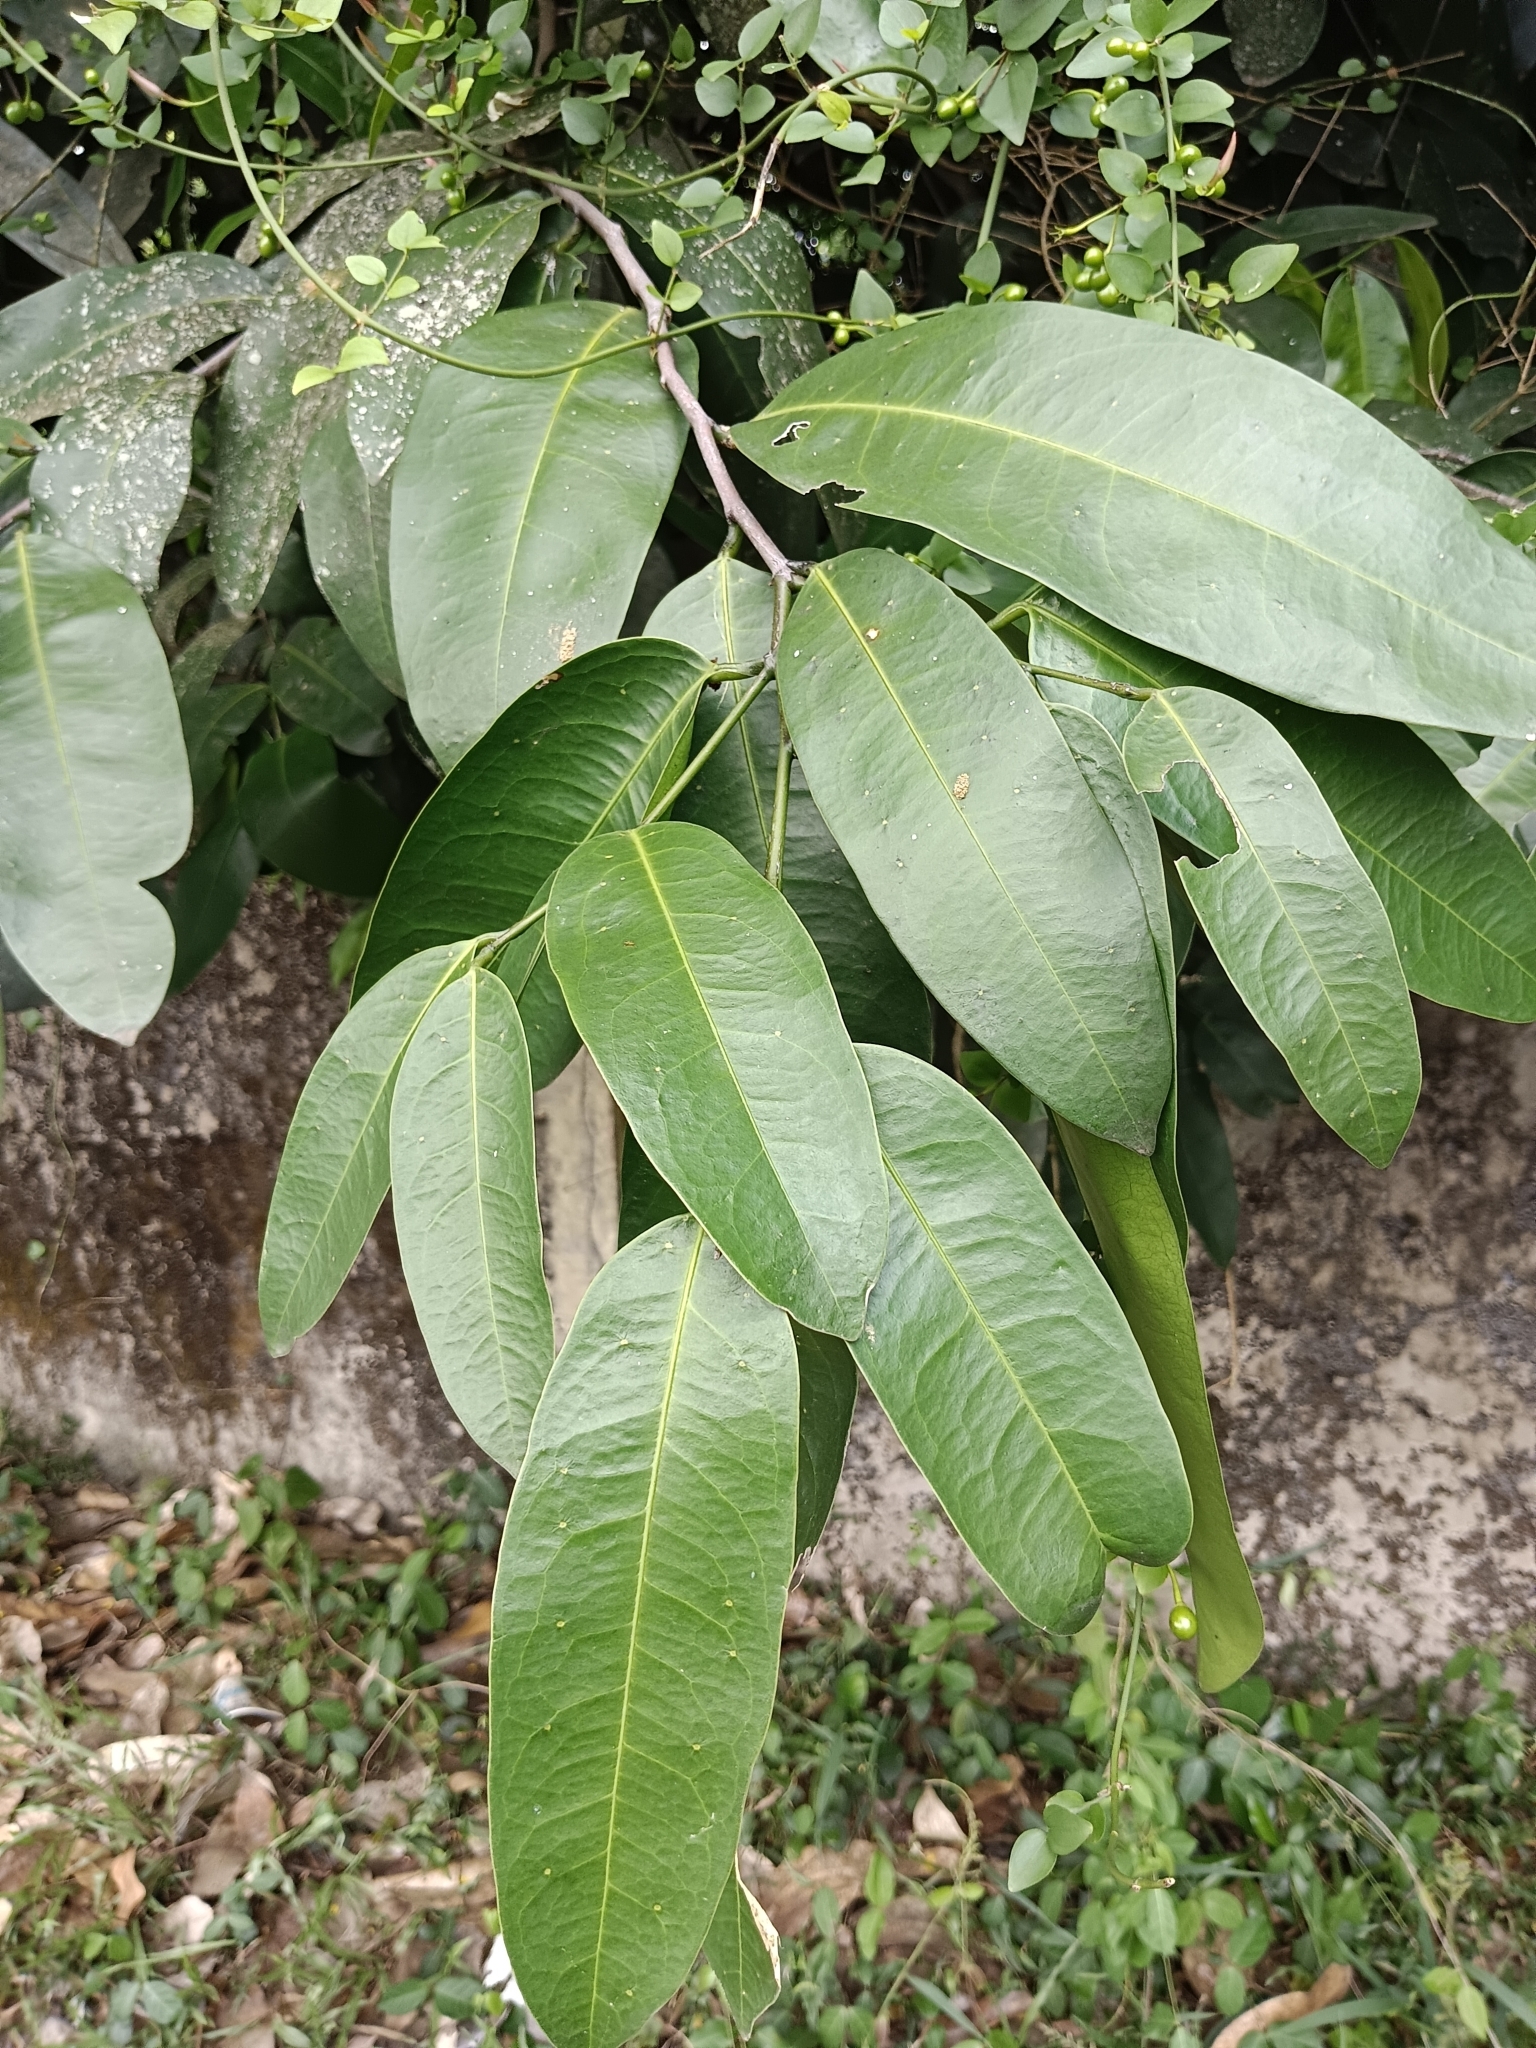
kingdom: Plantae
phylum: Tracheophyta
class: Magnoliopsida
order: Sapindales
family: Simaroubaceae
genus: Samadera
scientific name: Samadera indica
